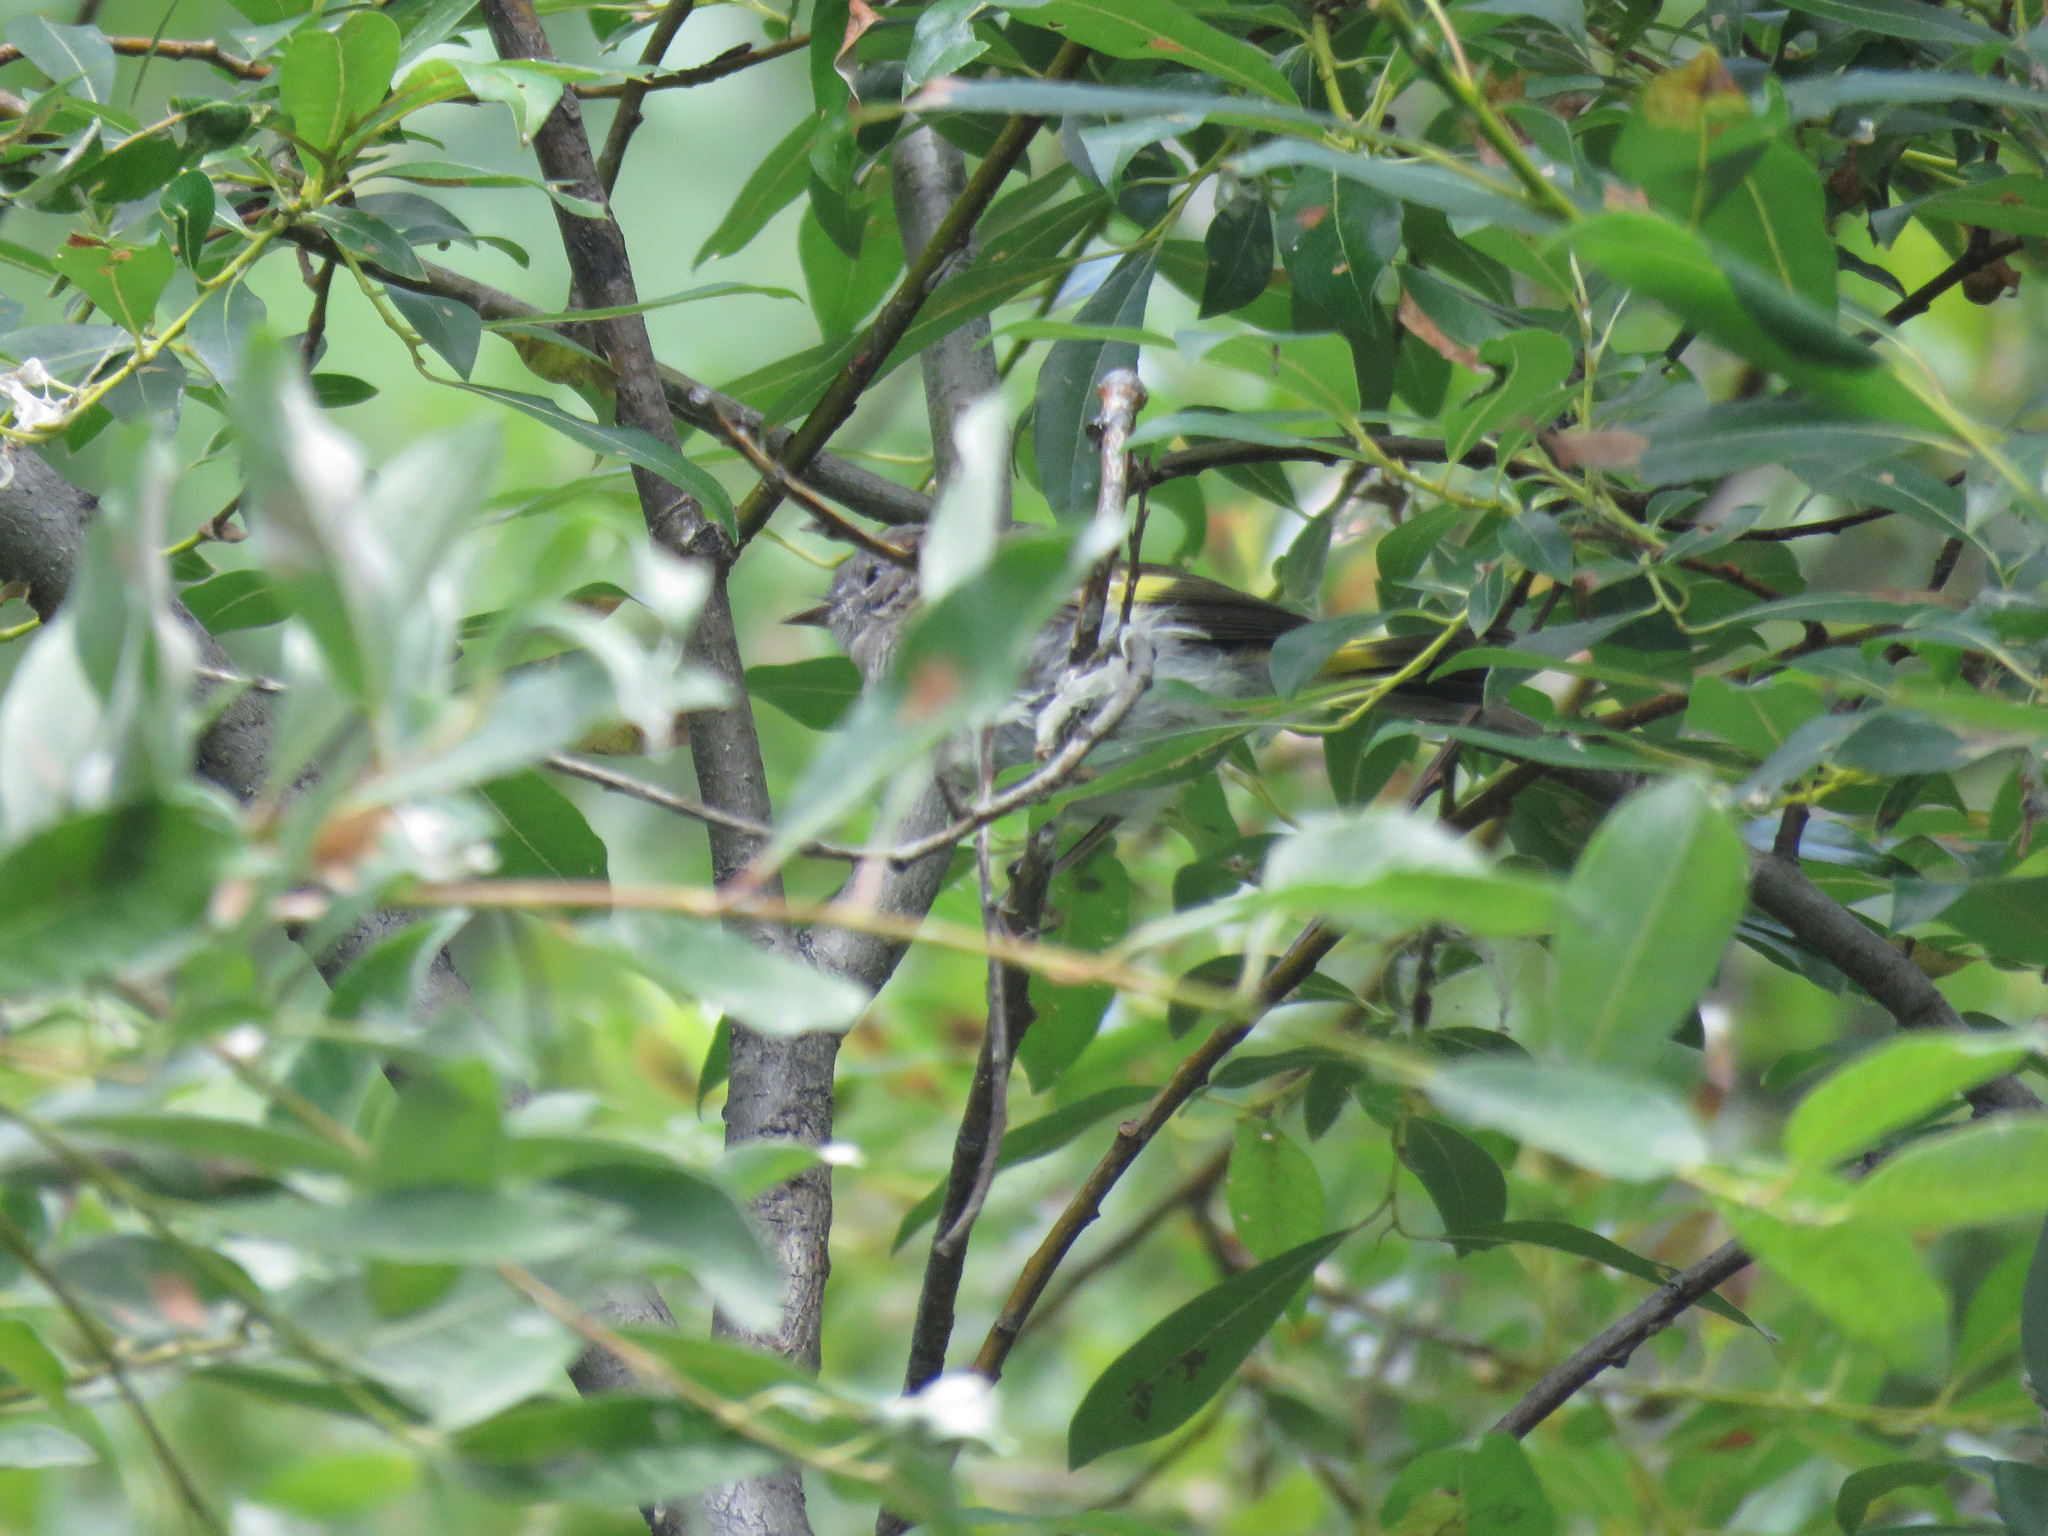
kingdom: Animalia
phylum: Chordata
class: Aves
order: Passeriformes
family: Parulidae
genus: Setophaga
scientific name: Setophaga ruticilla
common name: American redstart
